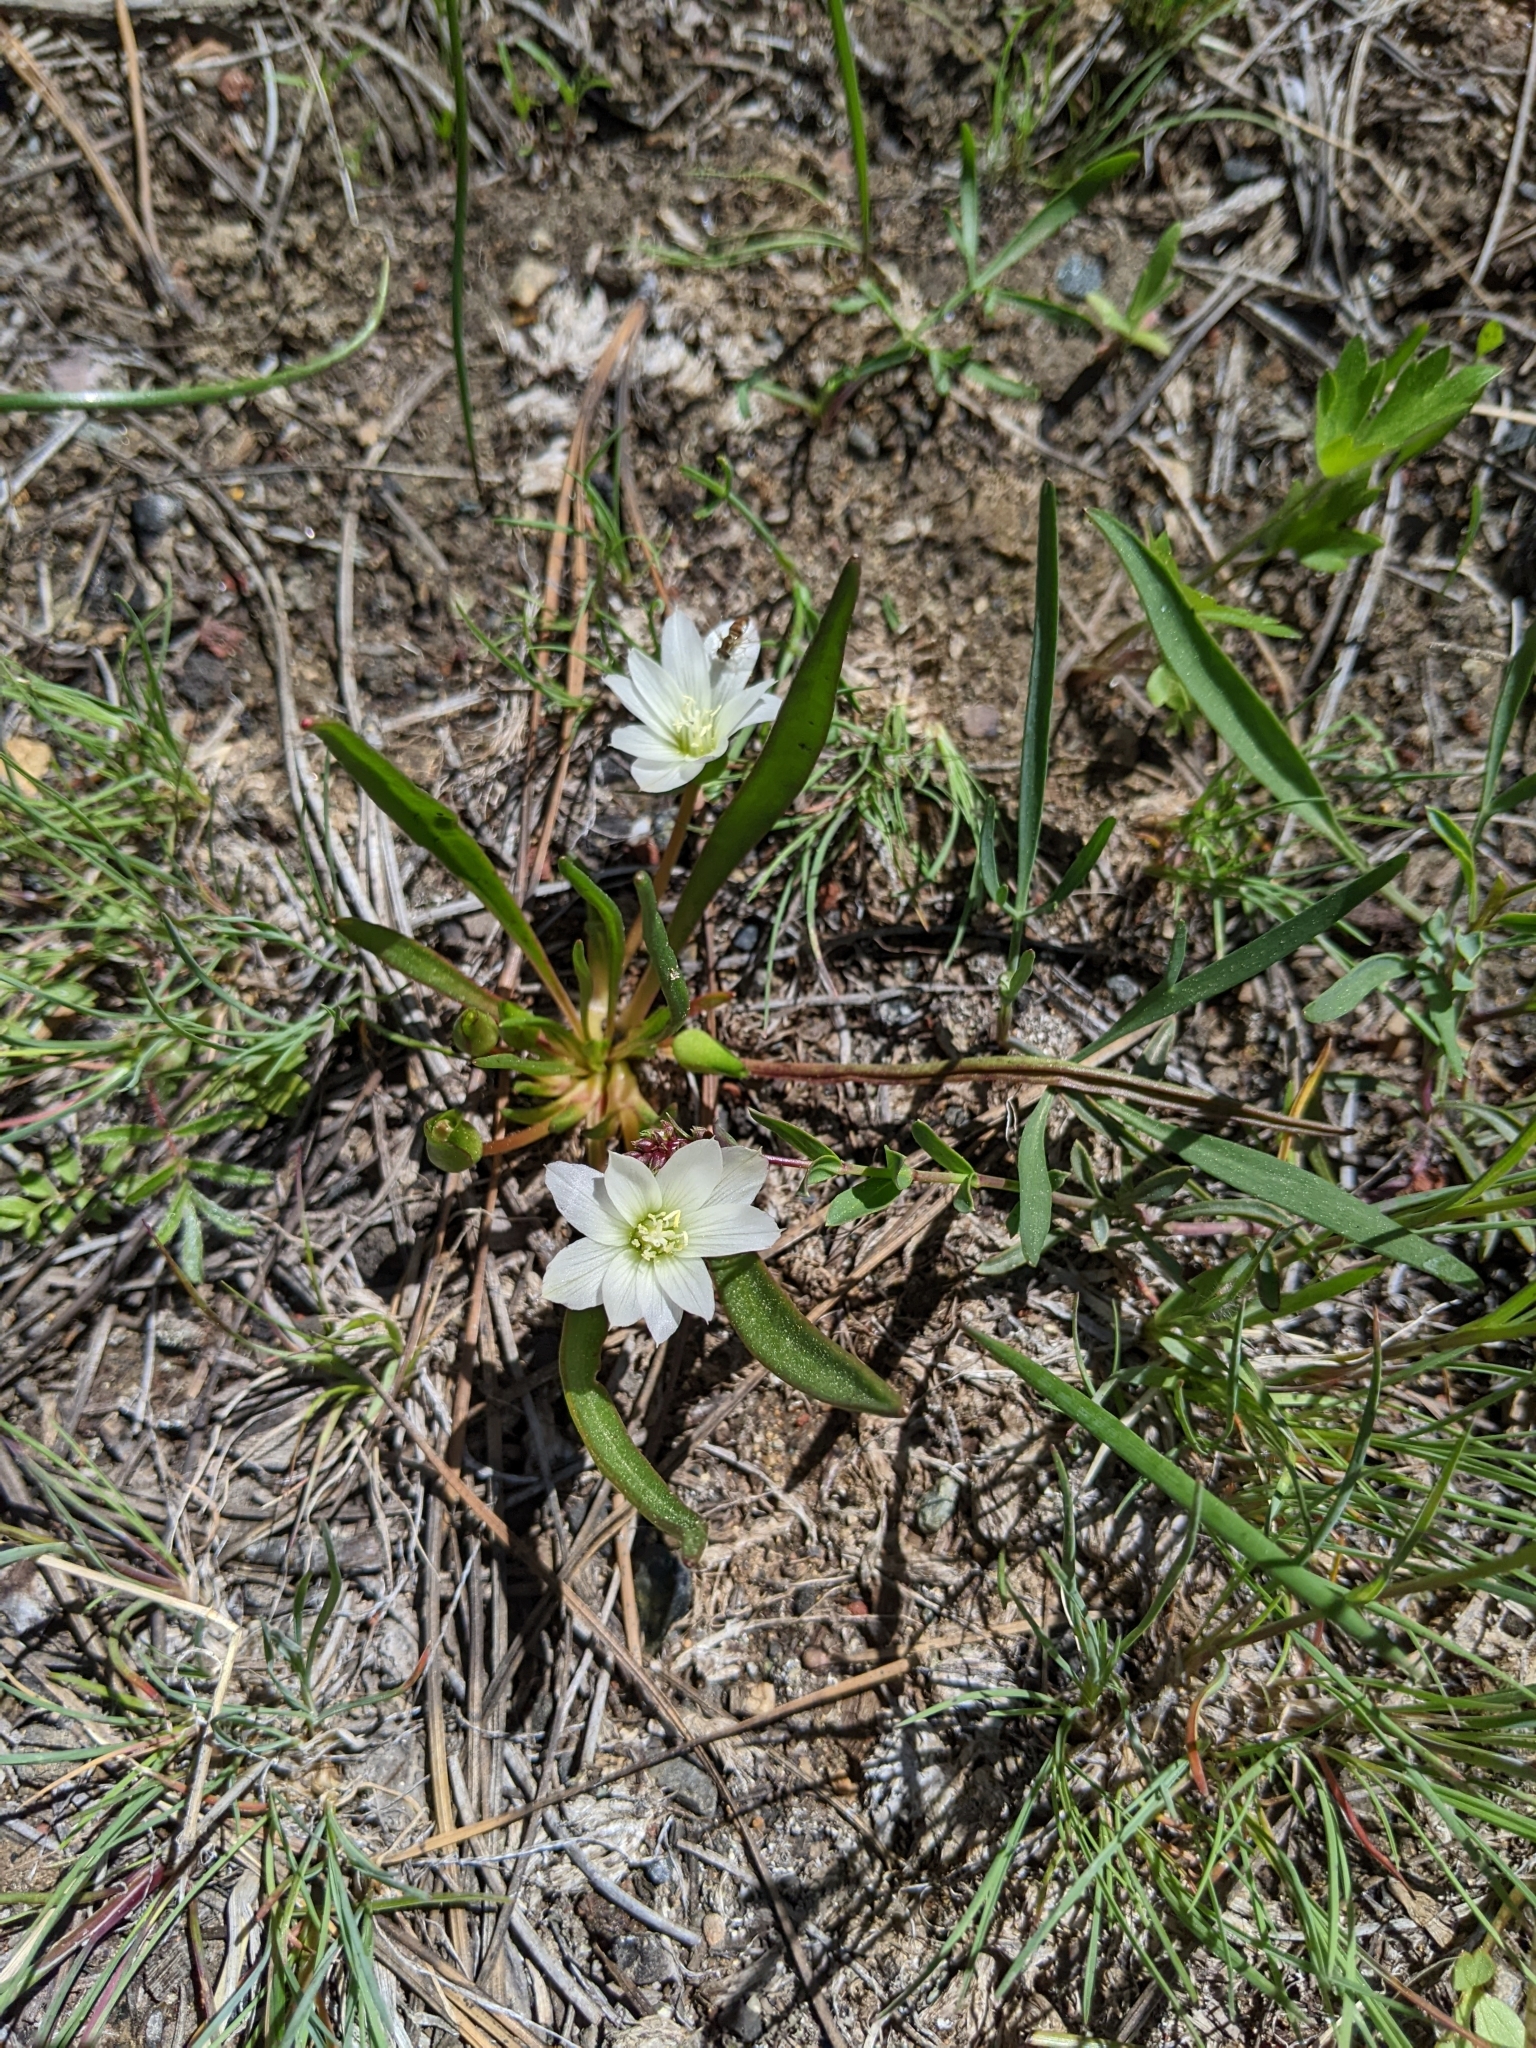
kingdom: Plantae
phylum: Tracheophyta
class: Magnoliopsida
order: Caryophyllales
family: Montiaceae
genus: Lewisia
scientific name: Lewisia nevadensis
